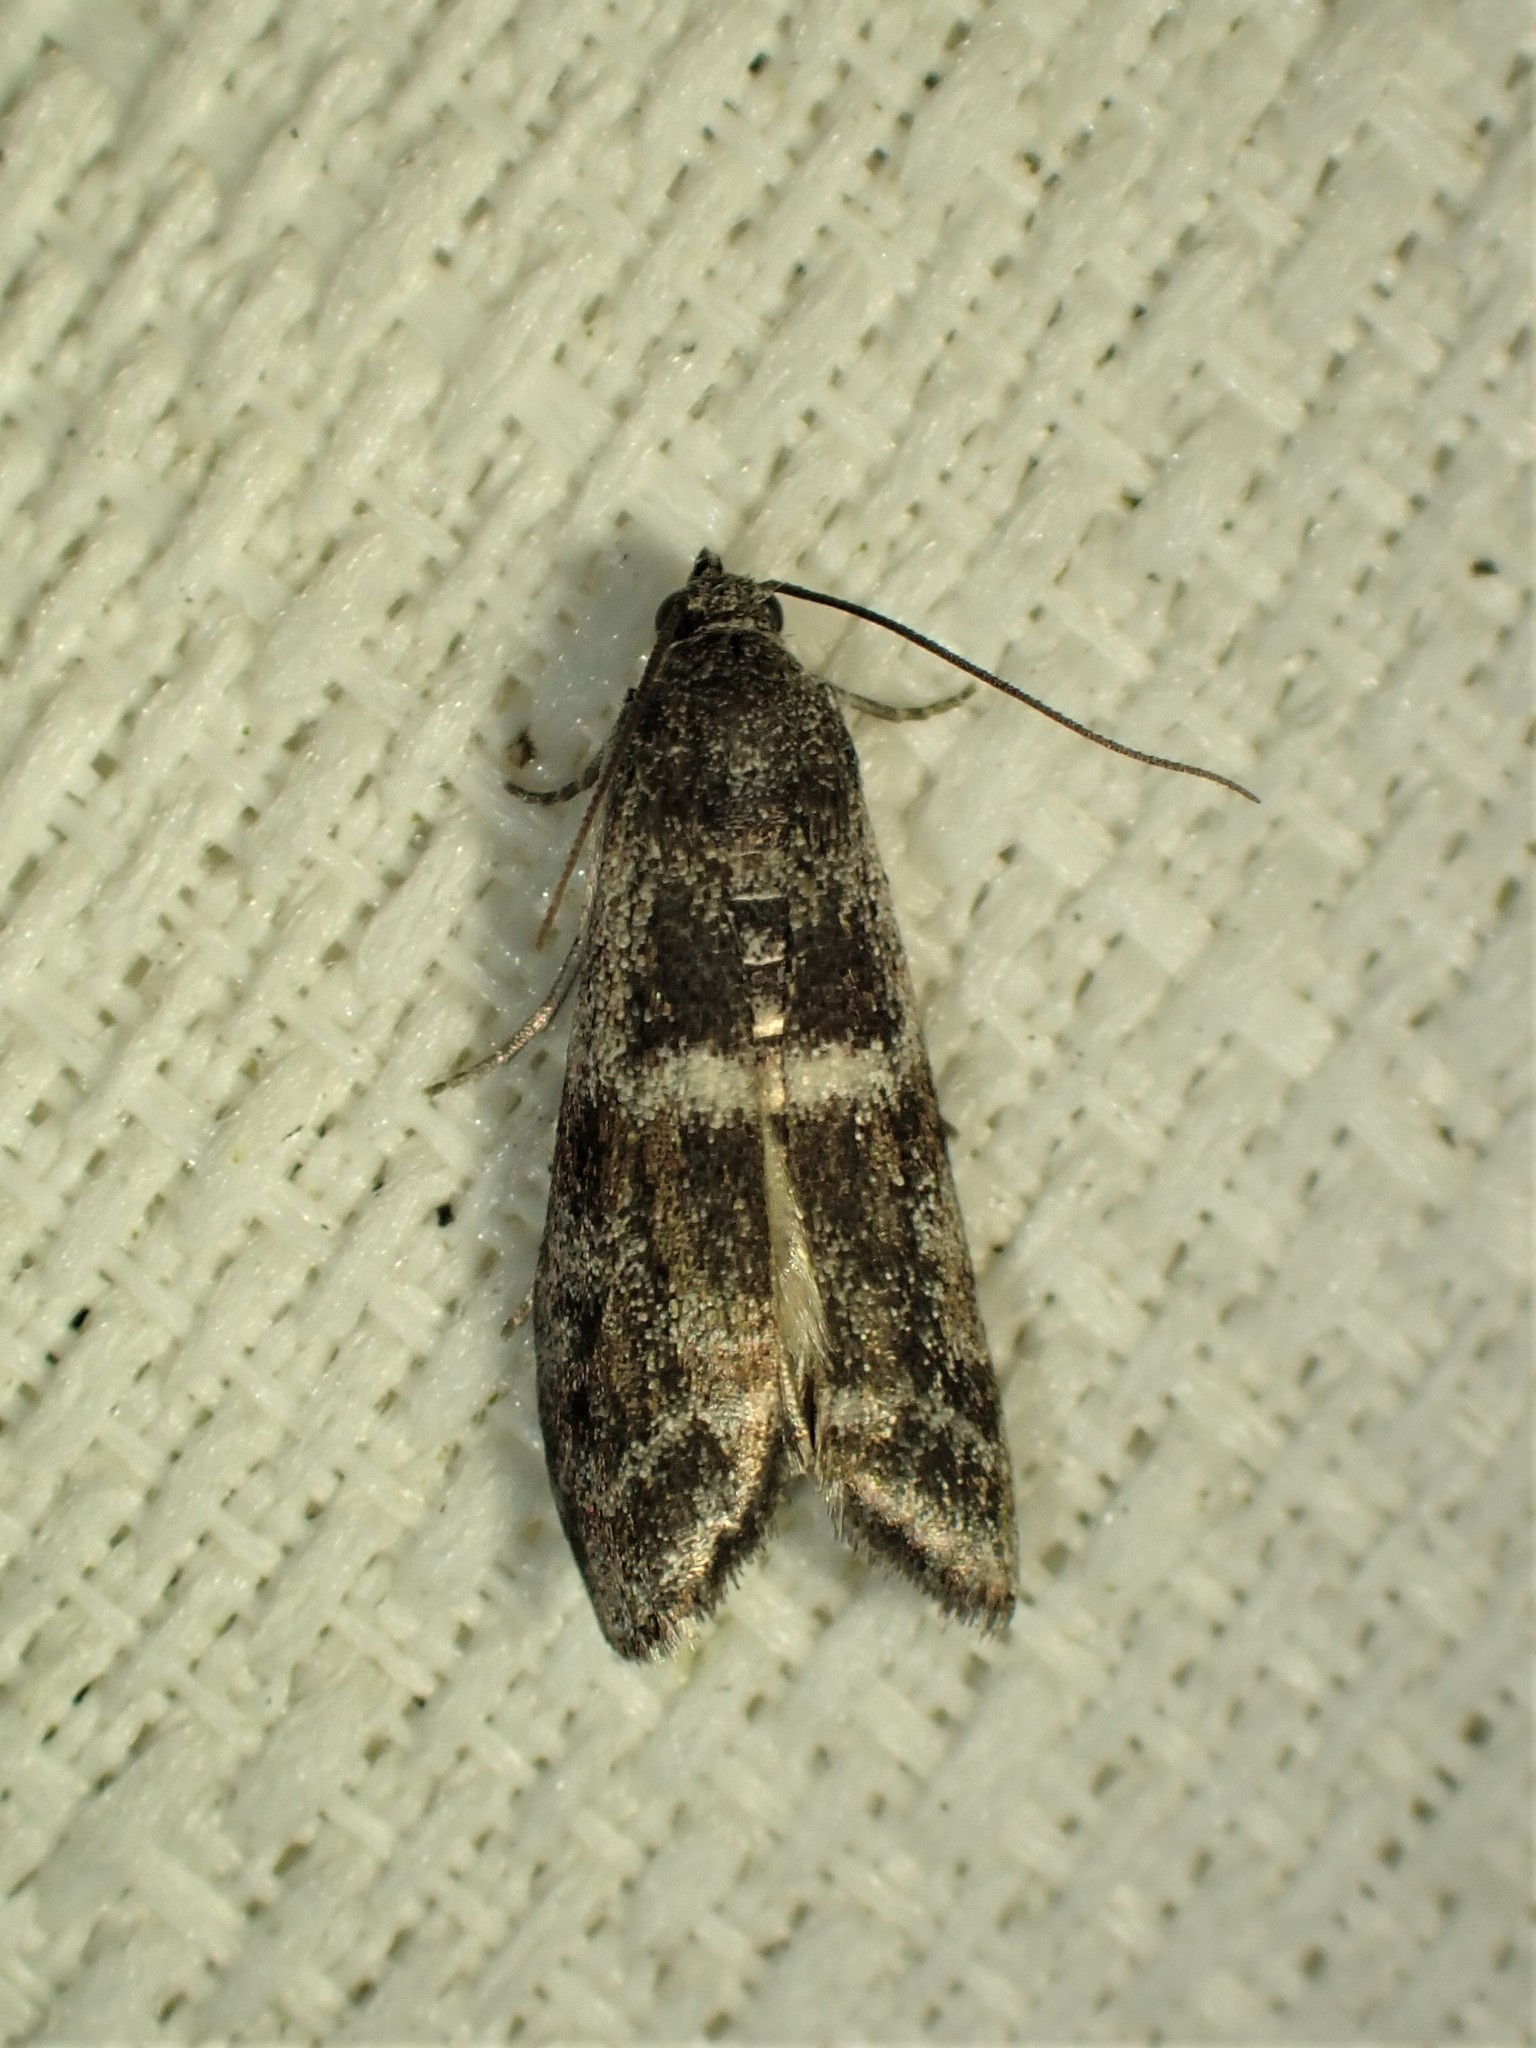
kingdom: Animalia
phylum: Arthropoda
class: Insecta
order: Lepidoptera
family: Pyralidae
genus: Apomyelois
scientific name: Apomyelois bistriatella
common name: Heath knot-horn
